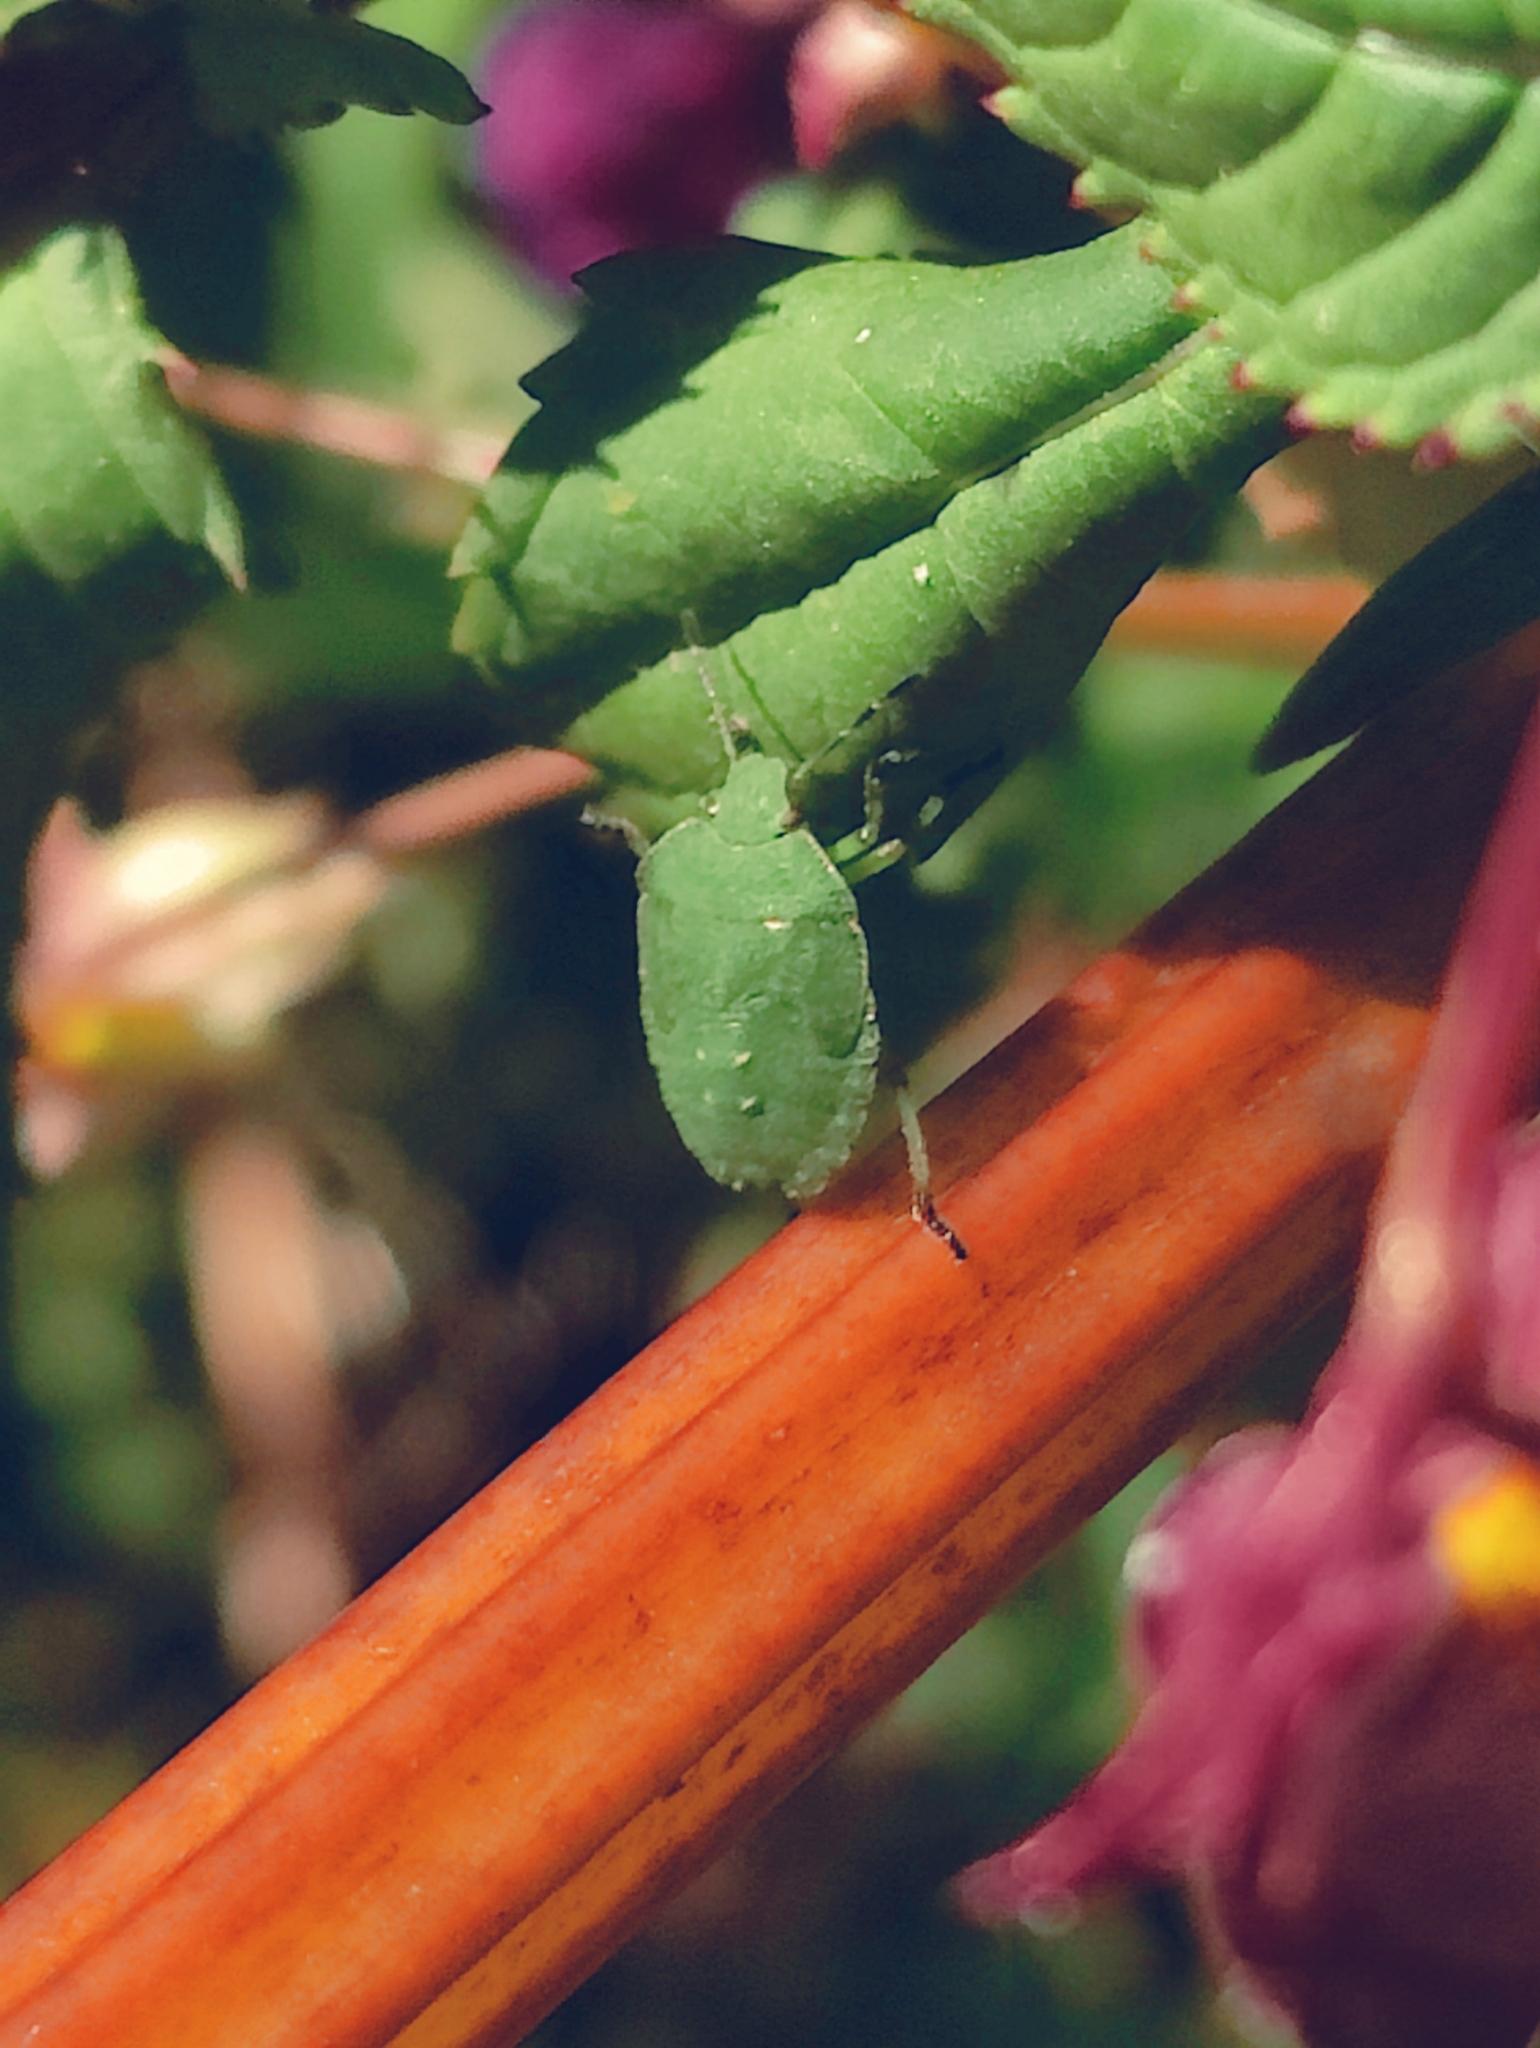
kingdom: Animalia
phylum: Arthropoda
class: Insecta
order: Hemiptera
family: Pentatomidae
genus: Palomena
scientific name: Palomena prasina
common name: Green shieldbug
